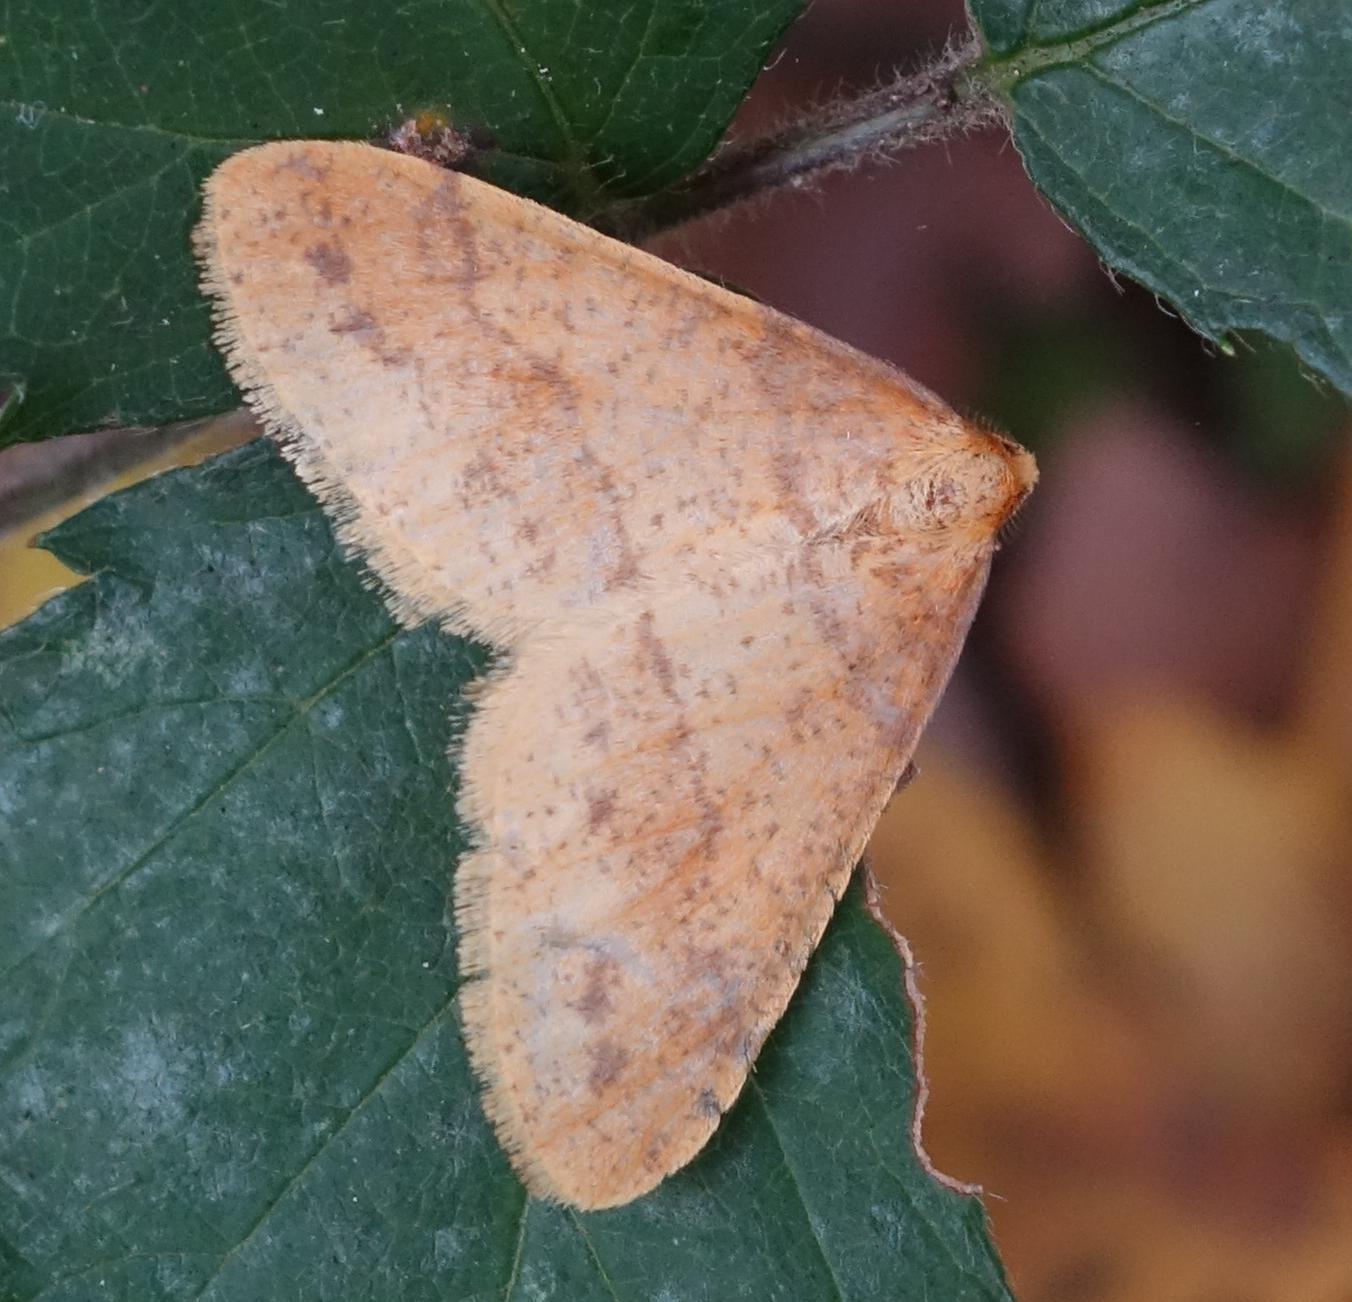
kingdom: Animalia
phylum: Arthropoda
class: Insecta
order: Lepidoptera
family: Geometridae
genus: Agriopis
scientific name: Agriopis aurantiaria
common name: Scarce umber
